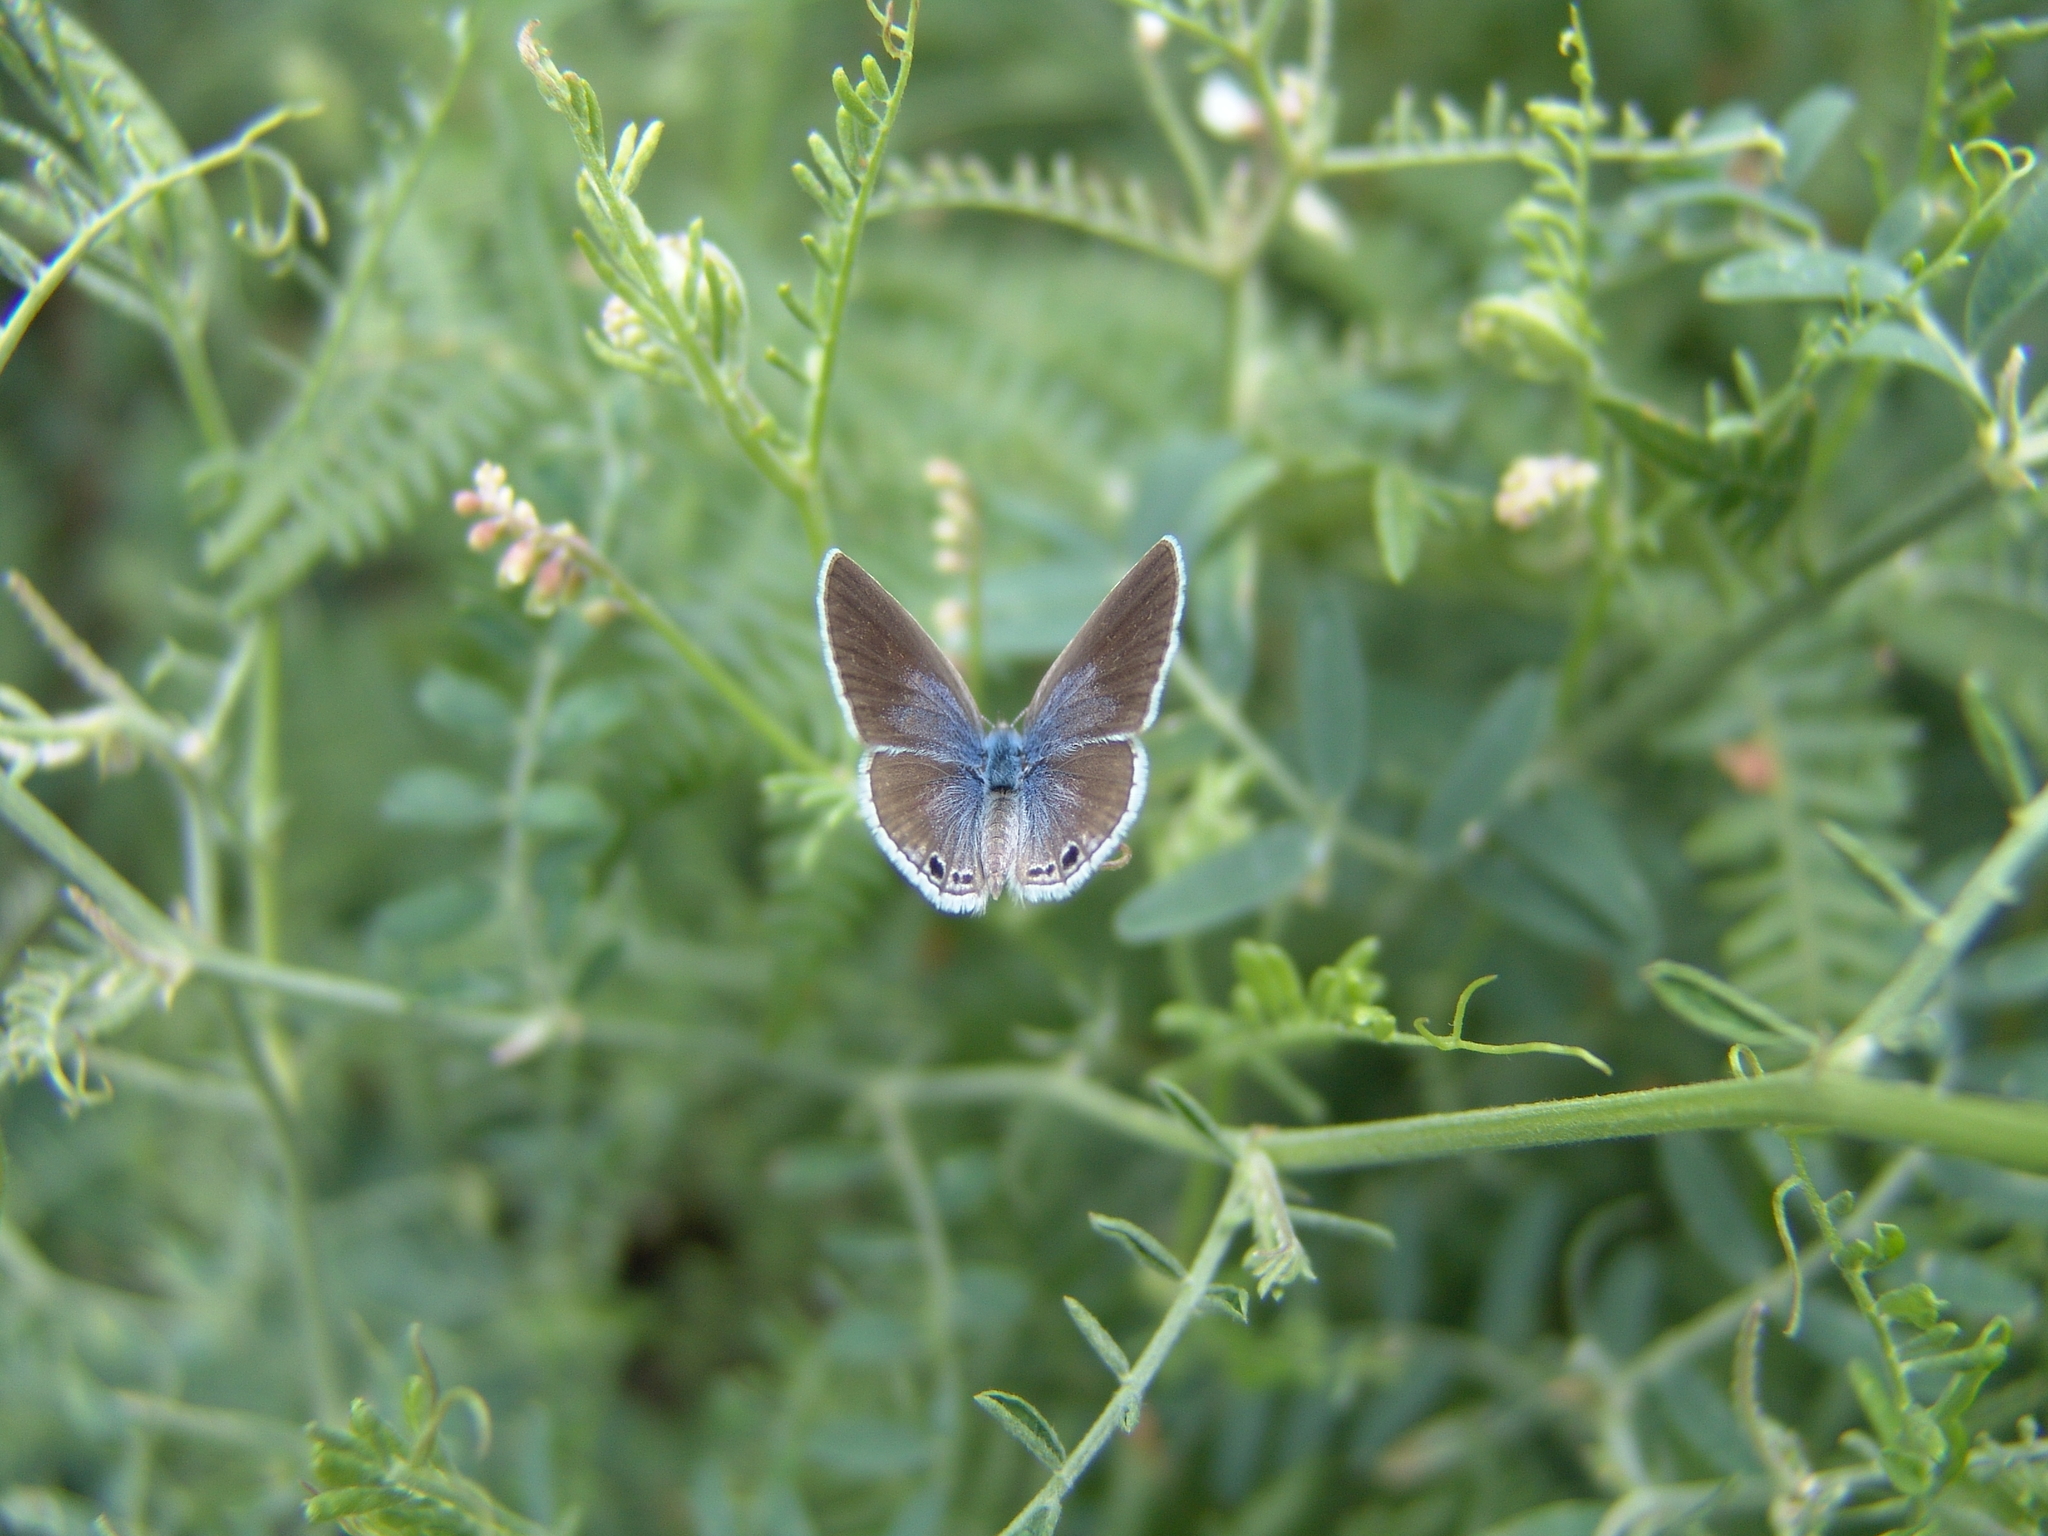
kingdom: Animalia
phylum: Arthropoda
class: Insecta
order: Lepidoptera
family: Lycaenidae
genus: Echinargus
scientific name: Echinargus isola
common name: Reakirt's blue
